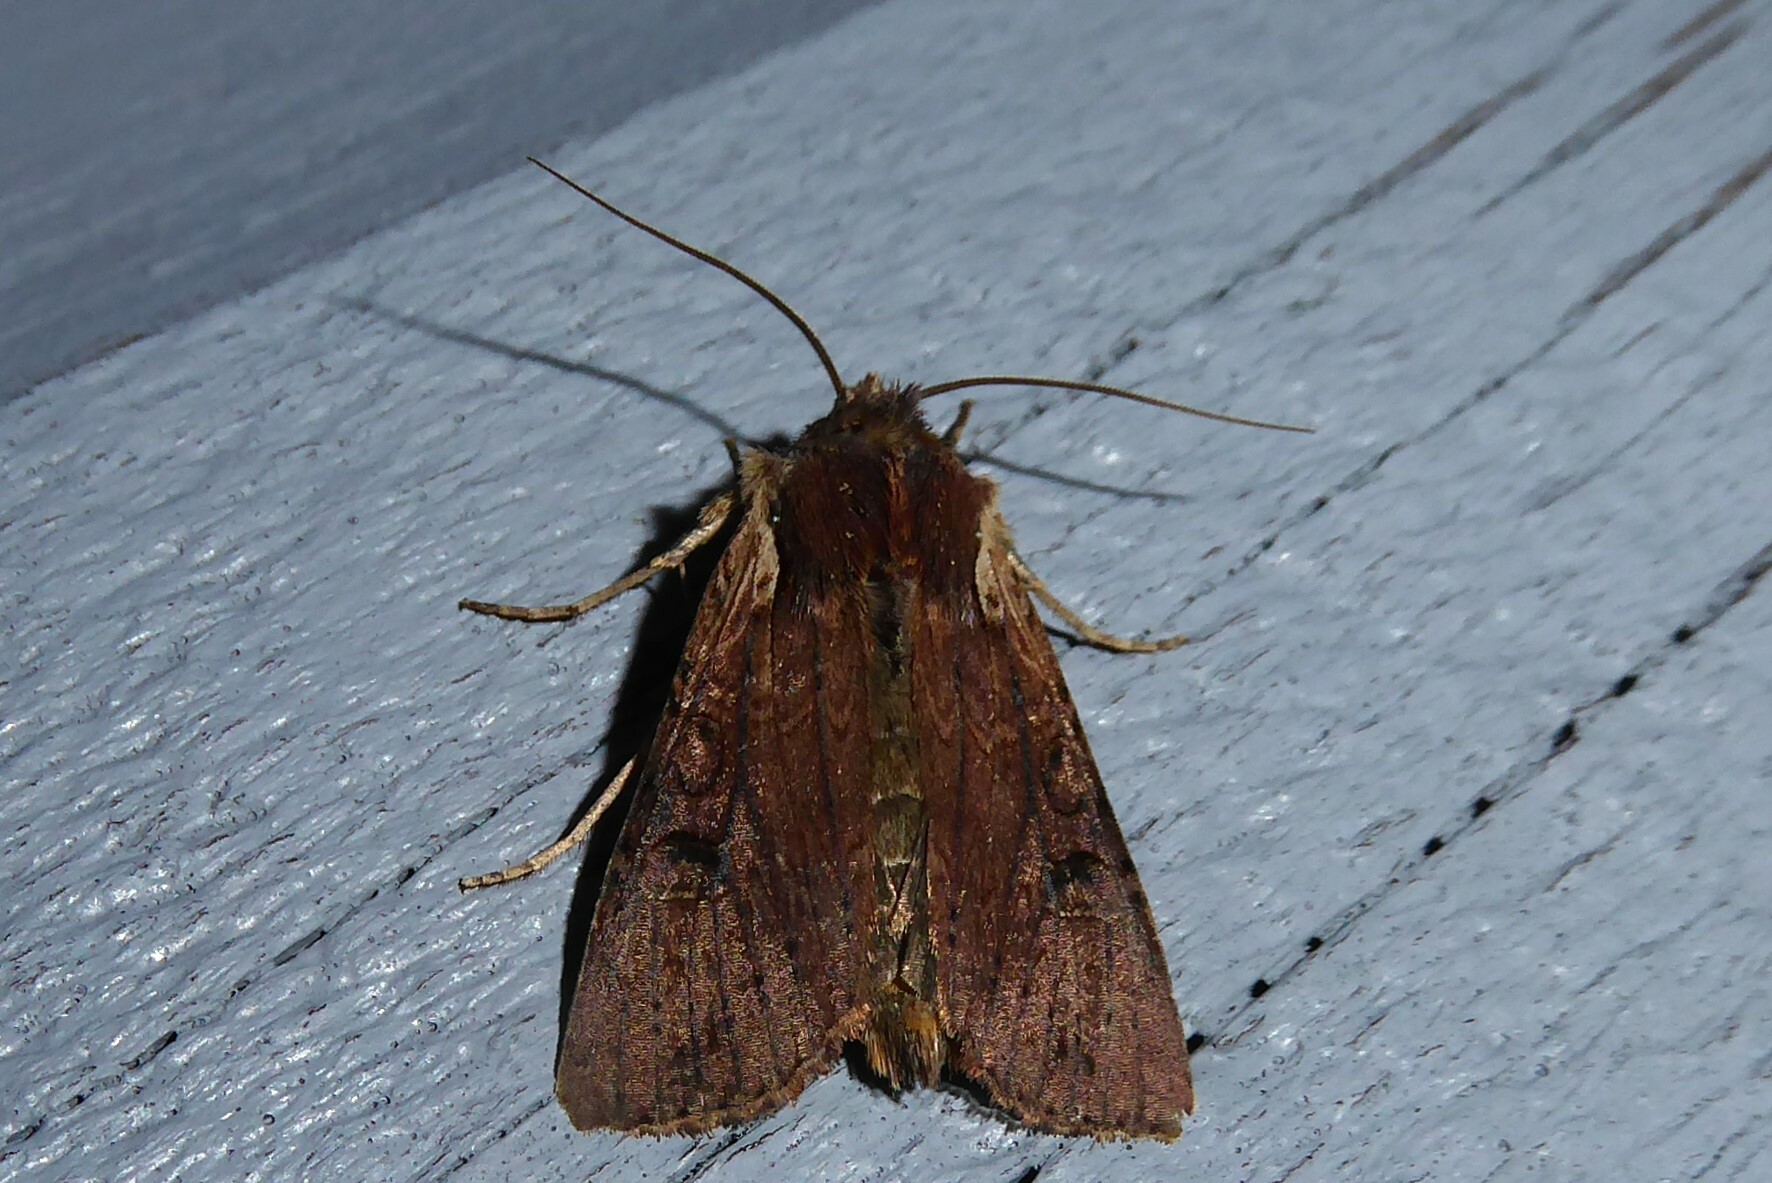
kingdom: Animalia
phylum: Arthropoda
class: Insecta
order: Lepidoptera
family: Noctuidae
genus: Ichneutica
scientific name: Ichneutica omoplaca
